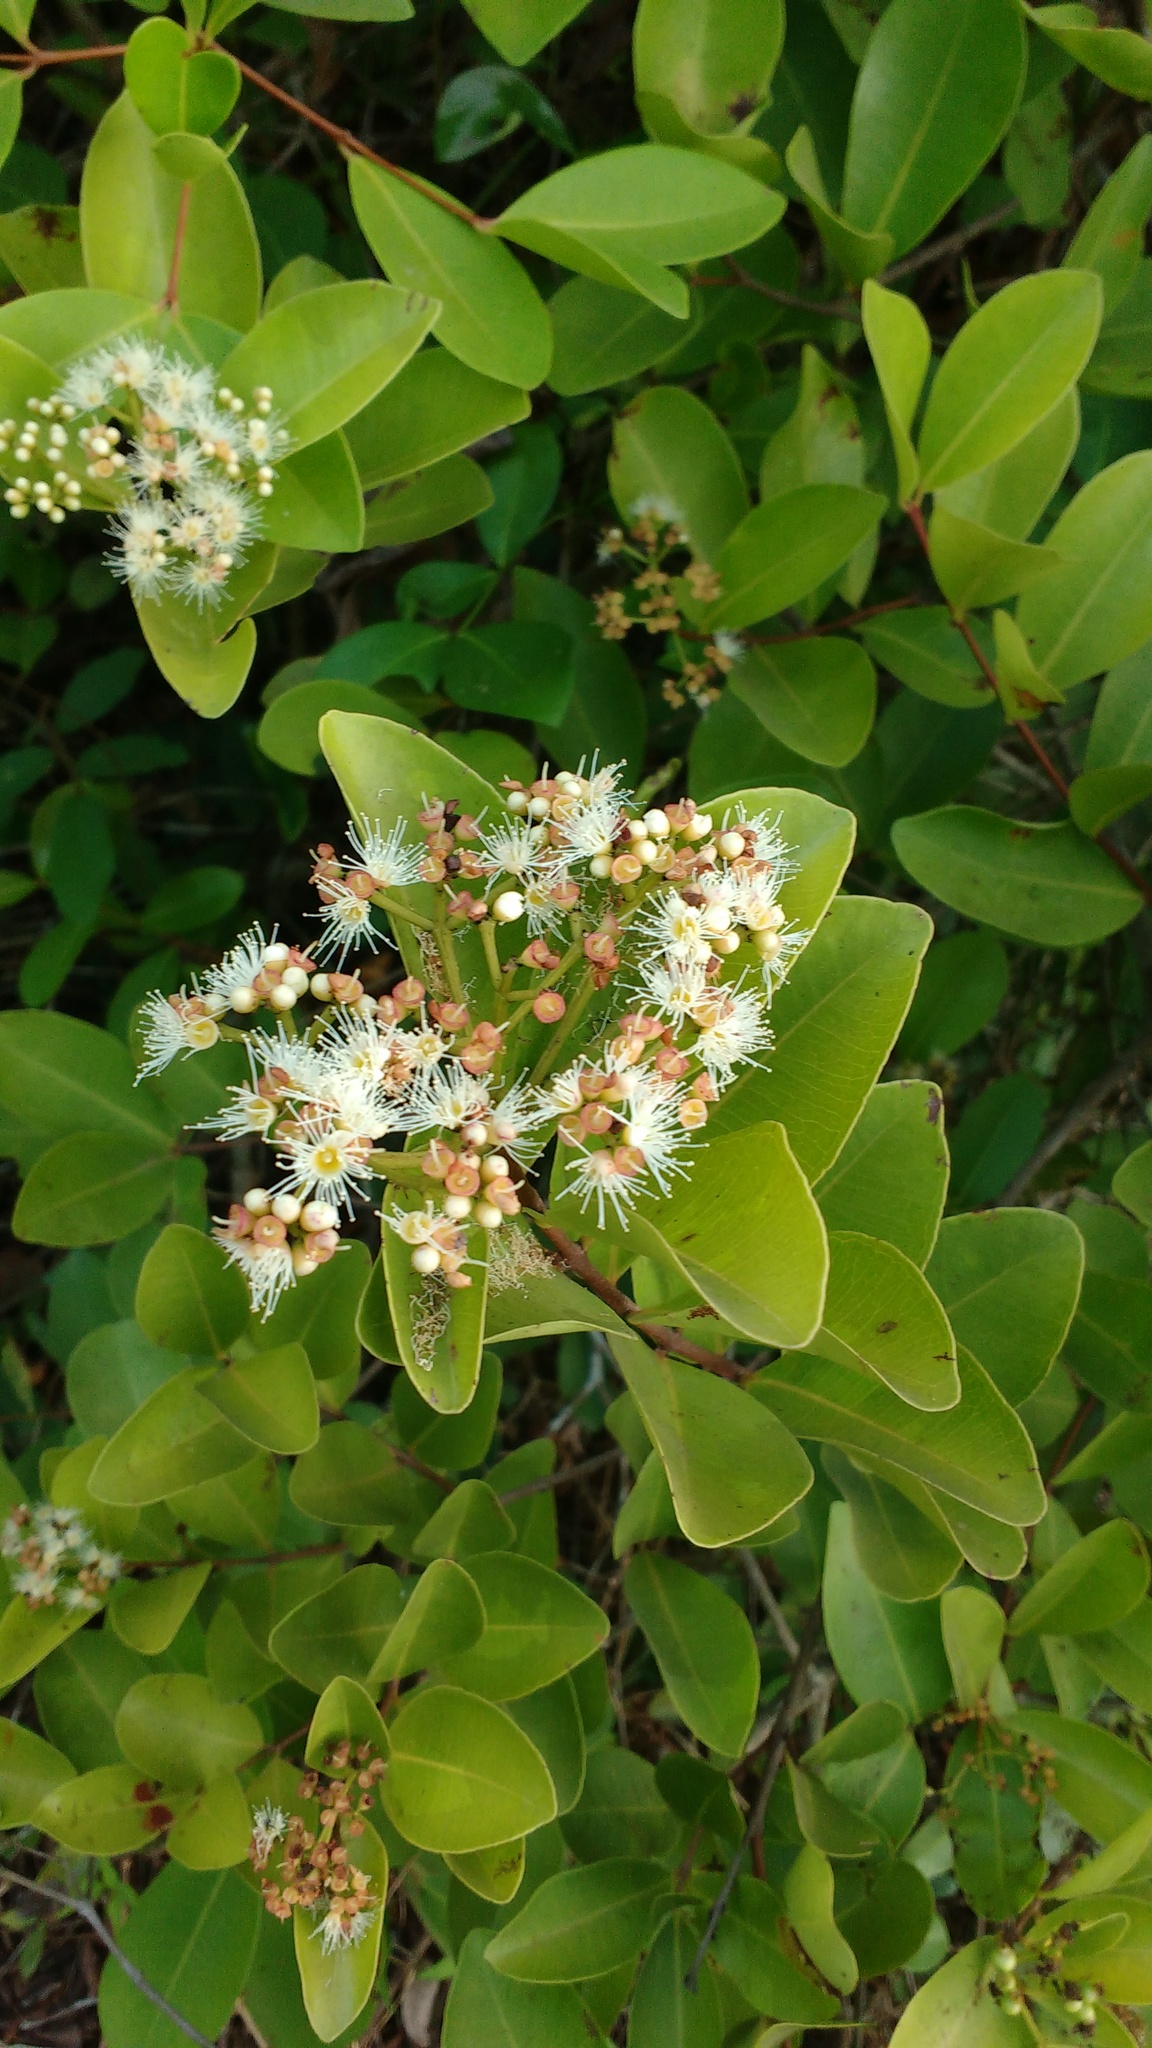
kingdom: Plantae
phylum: Tracheophyta
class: Magnoliopsida
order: Myrtales
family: Myrtaceae
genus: Syzygium
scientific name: Syzygium caryophyllatum
